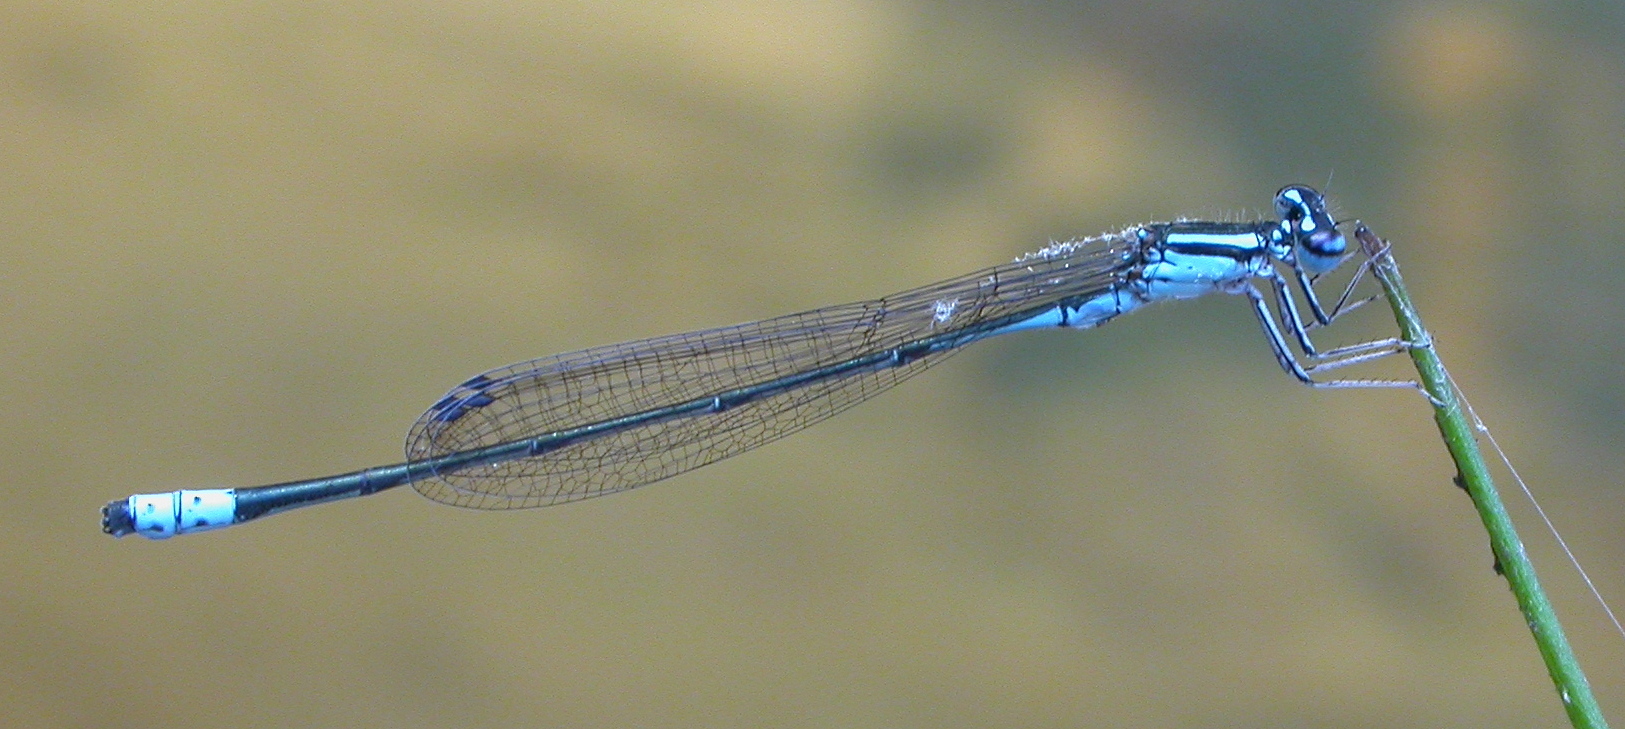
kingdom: Animalia
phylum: Arthropoda
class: Insecta
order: Odonata
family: Coenagrionidae
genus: Enallagma
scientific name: Enallagma divagans
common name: Turquoise bluet
